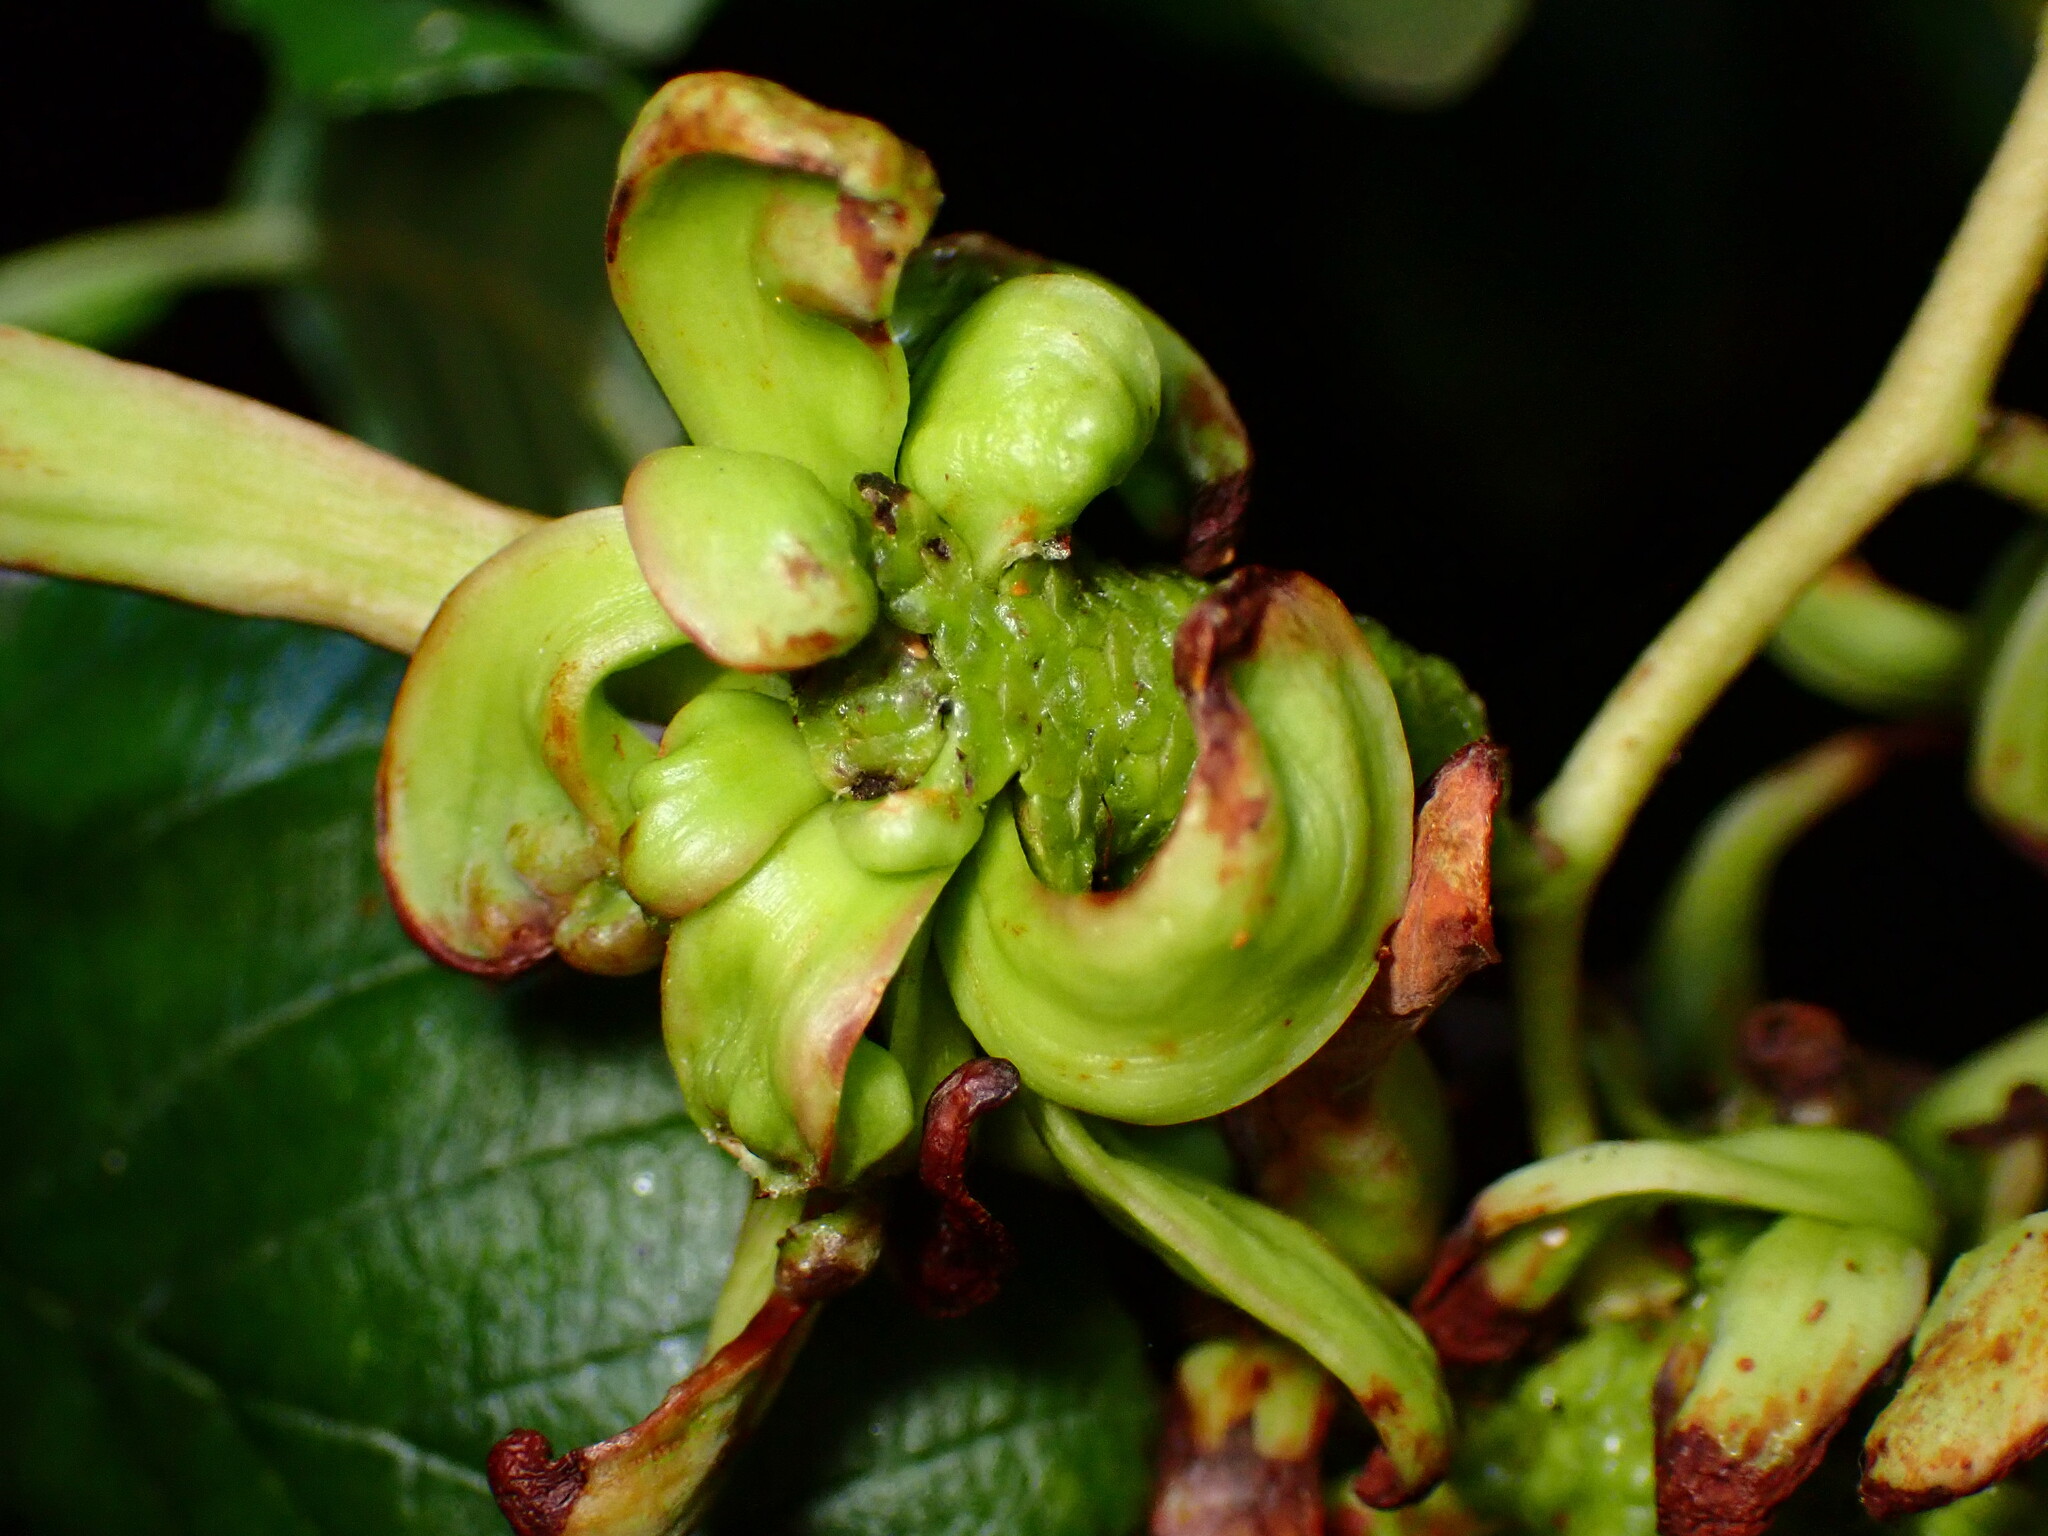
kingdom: Fungi
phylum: Ascomycota
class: Taphrinomycetes
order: Taphrinales
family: Taphrinaceae
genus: Taphrina
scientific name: Taphrina occidentalis
